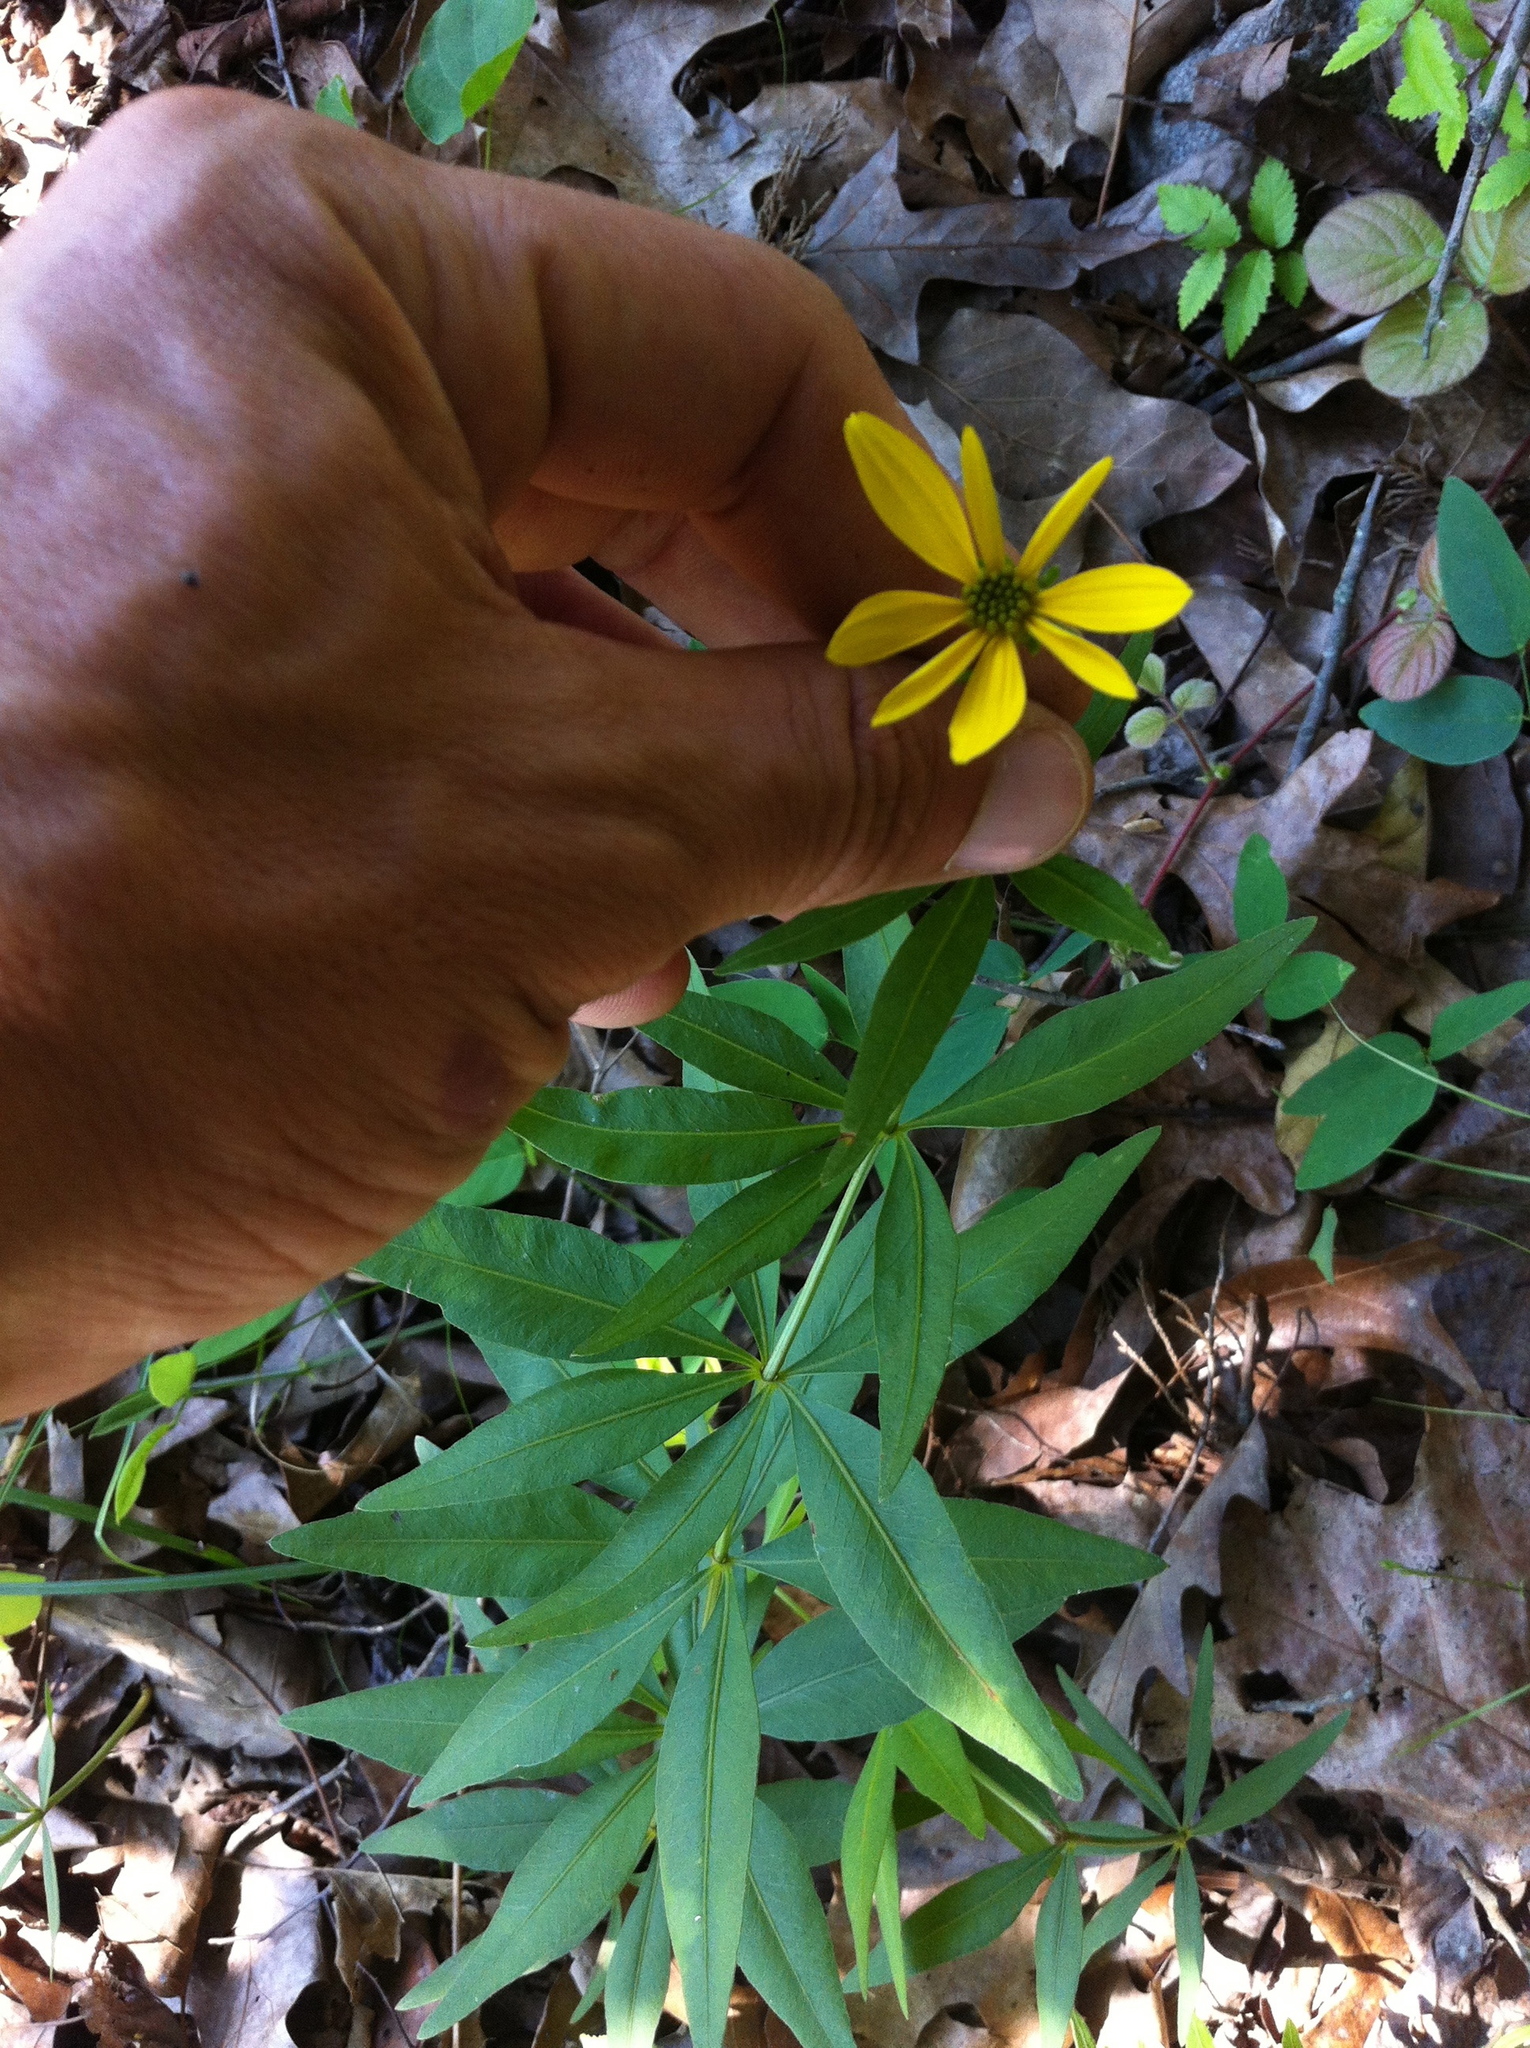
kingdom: Plantae
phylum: Tracheophyta
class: Magnoliopsida
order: Asterales
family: Asteraceae
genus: Coreopsis
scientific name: Coreopsis major
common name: Forest tickseed
